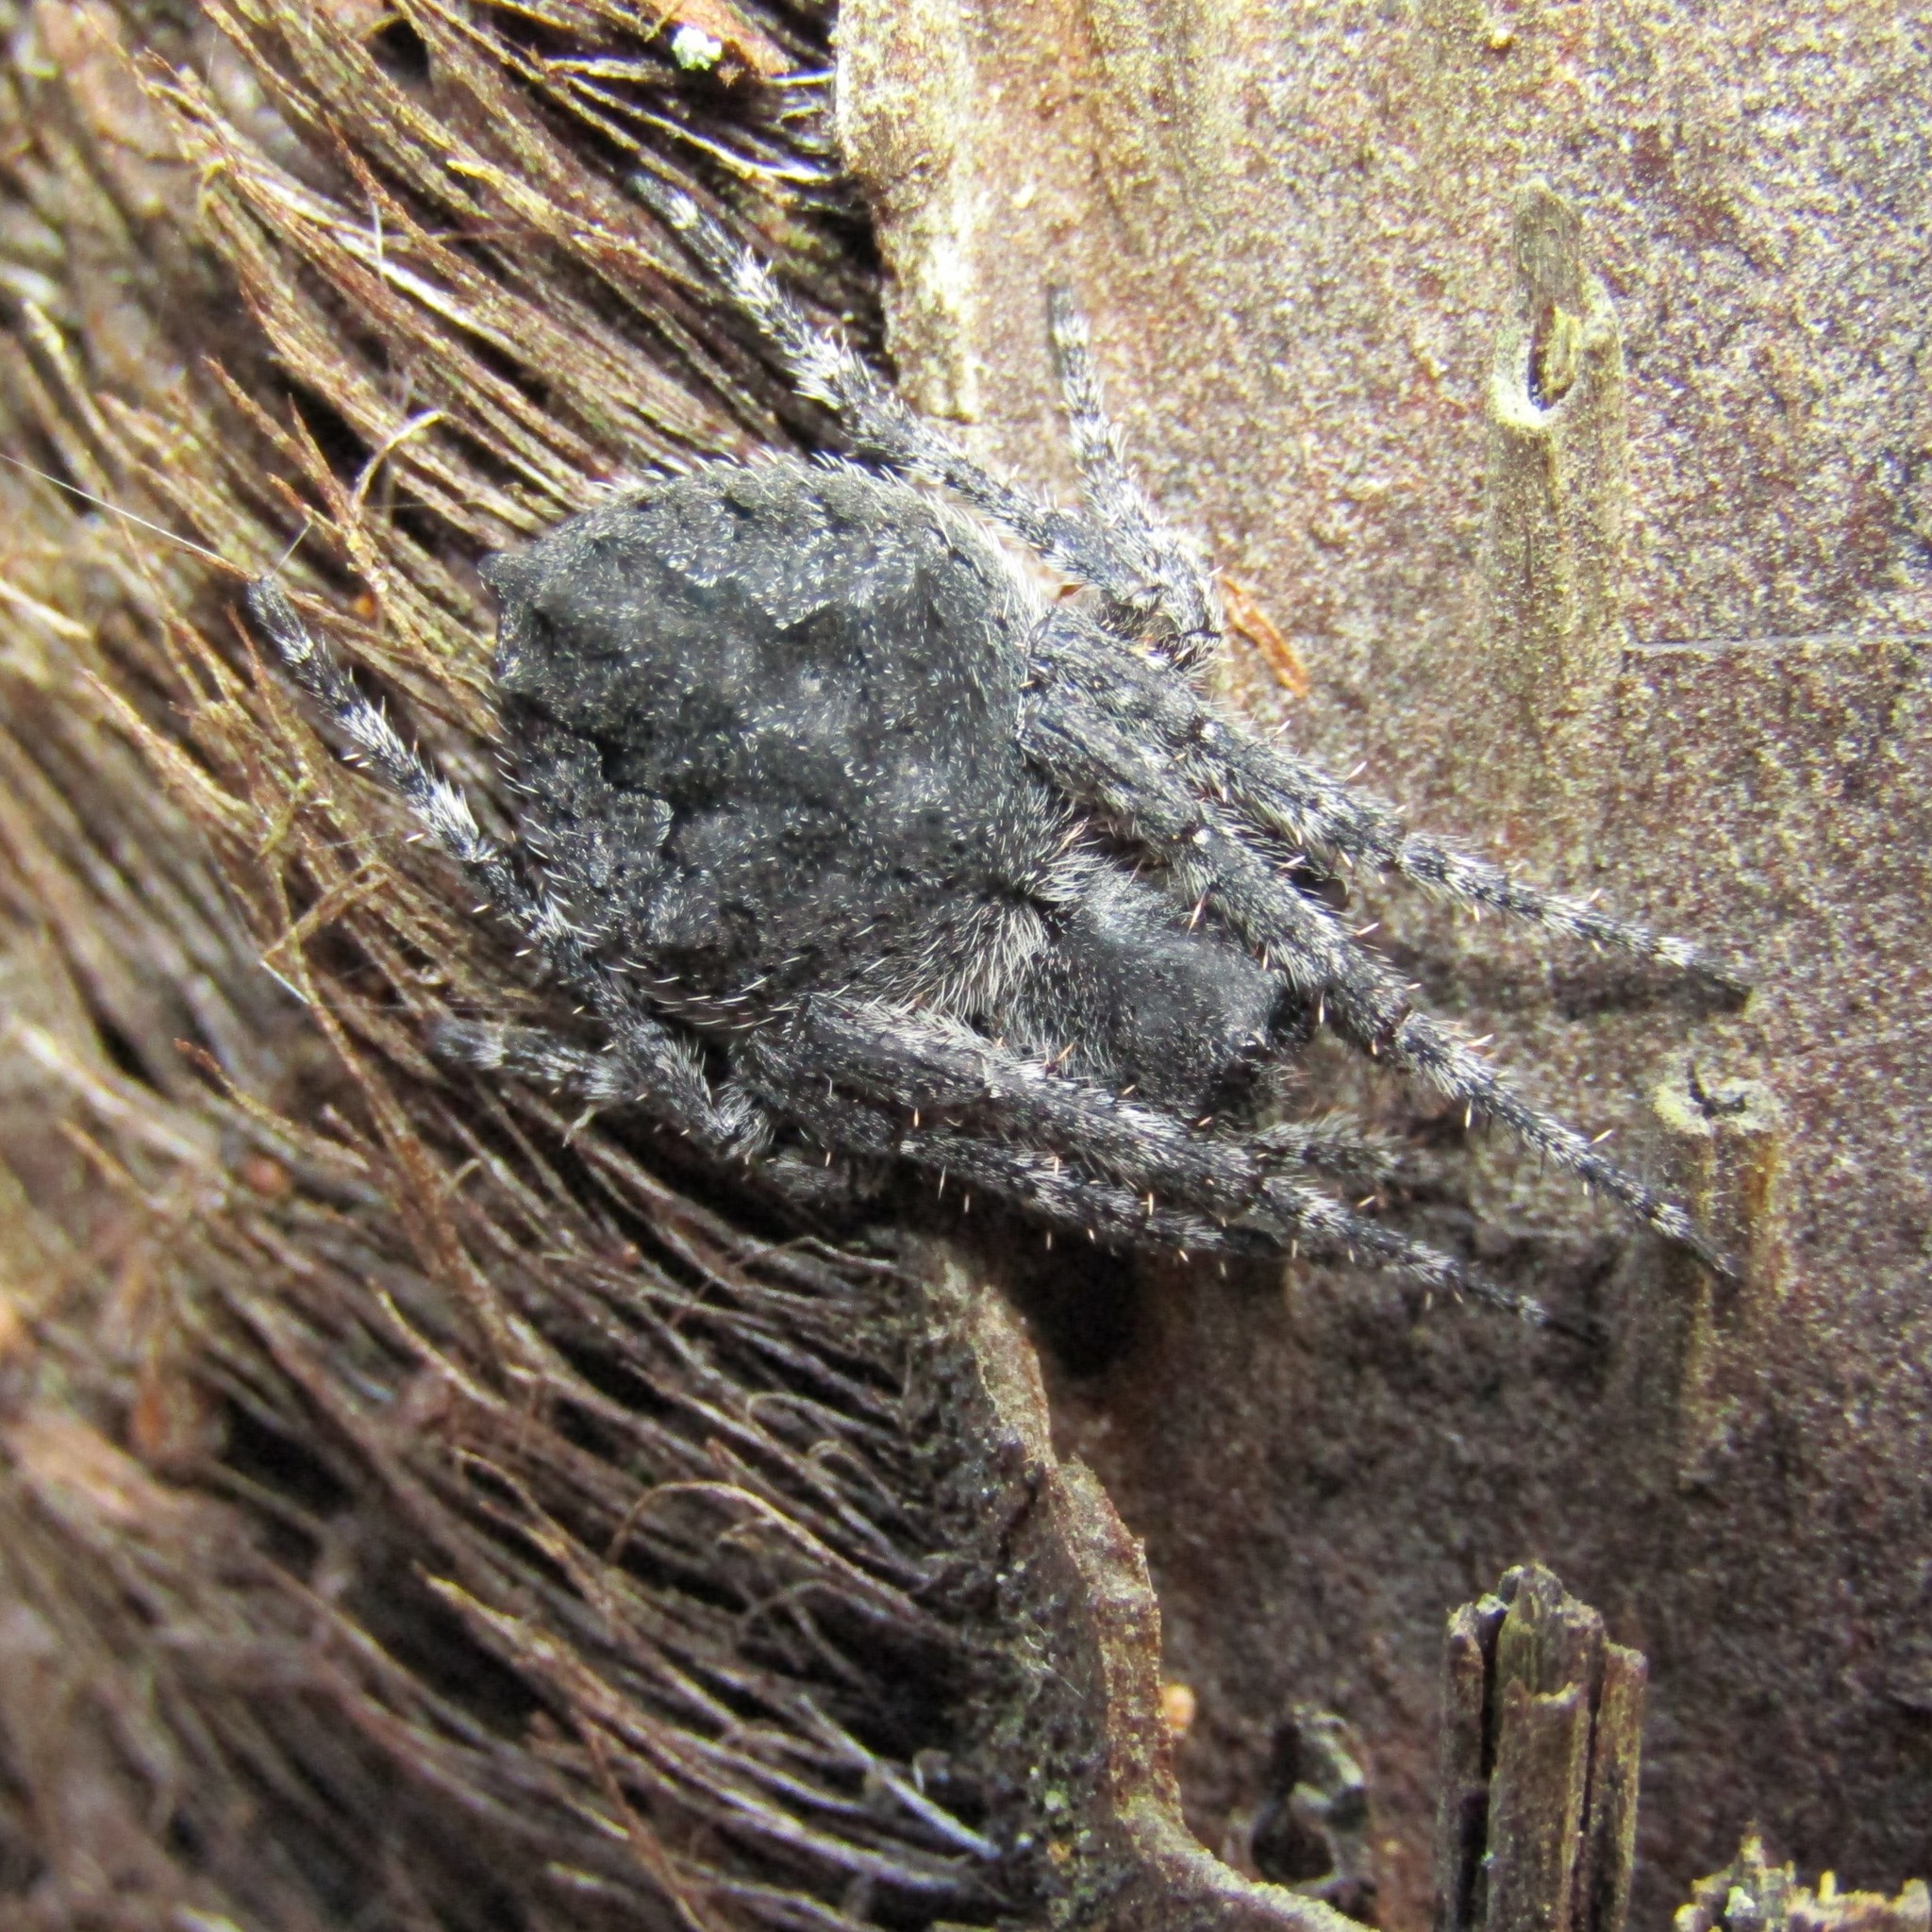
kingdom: Animalia
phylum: Arthropoda
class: Arachnida
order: Araneae
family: Araneidae
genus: Eriophora
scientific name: Eriophora pustulosa
